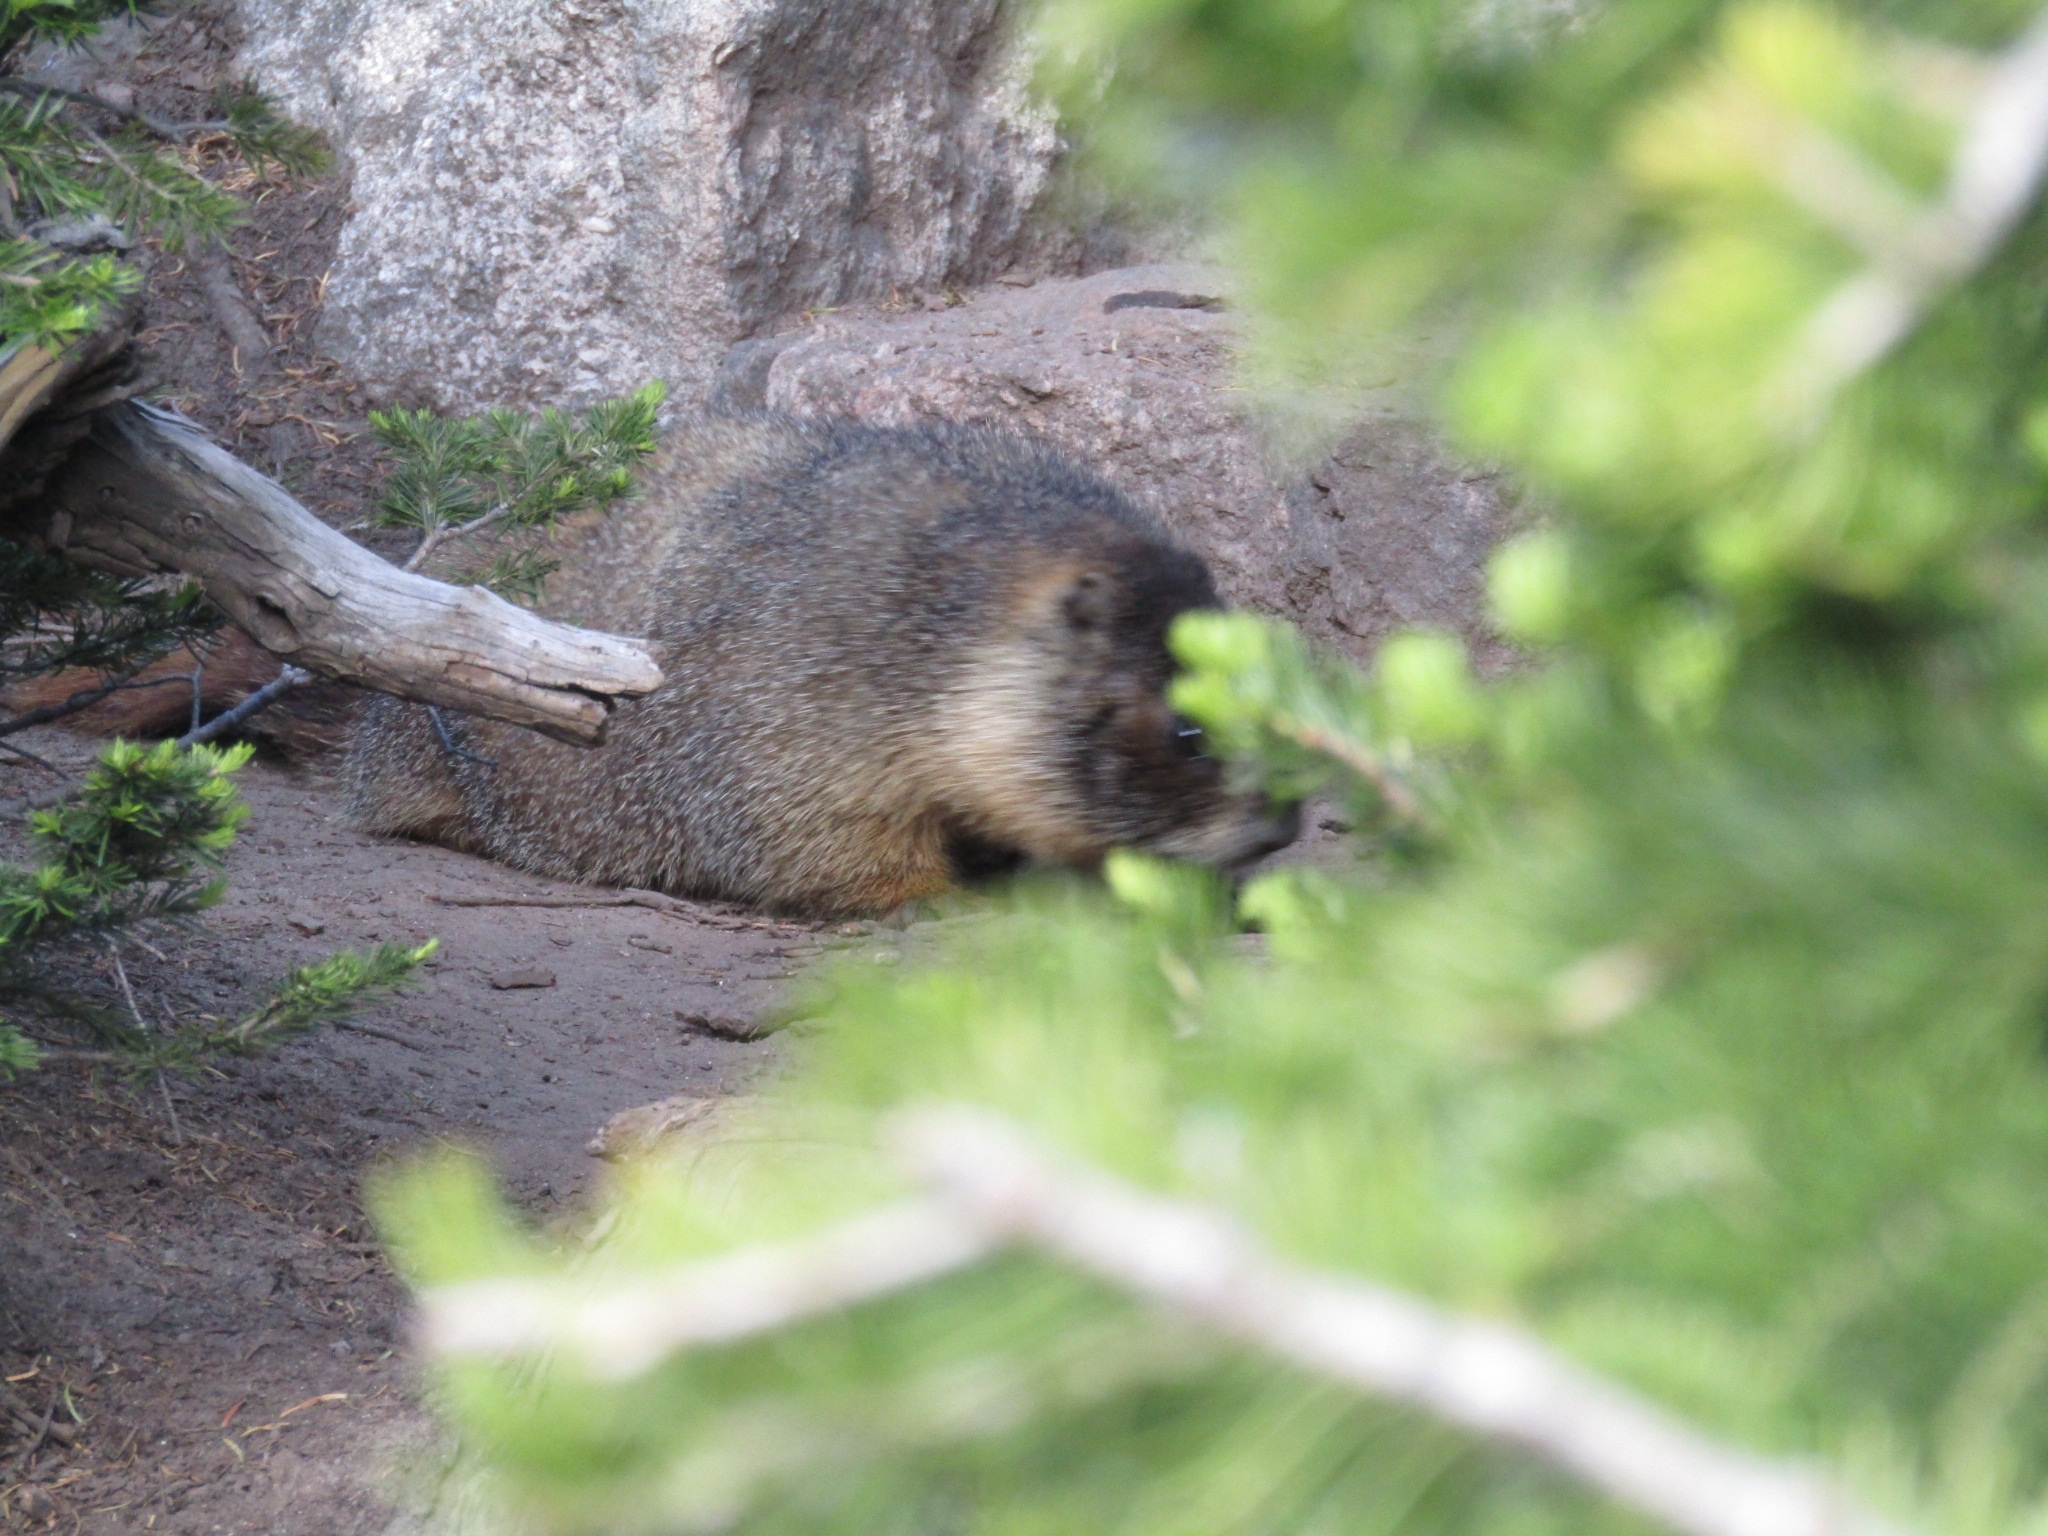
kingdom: Animalia
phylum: Chordata
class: Mammalia
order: Rodentia
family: Sciuridae
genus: Marmota
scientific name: Marmota flaviventris
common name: Yellow-bellied marmot
